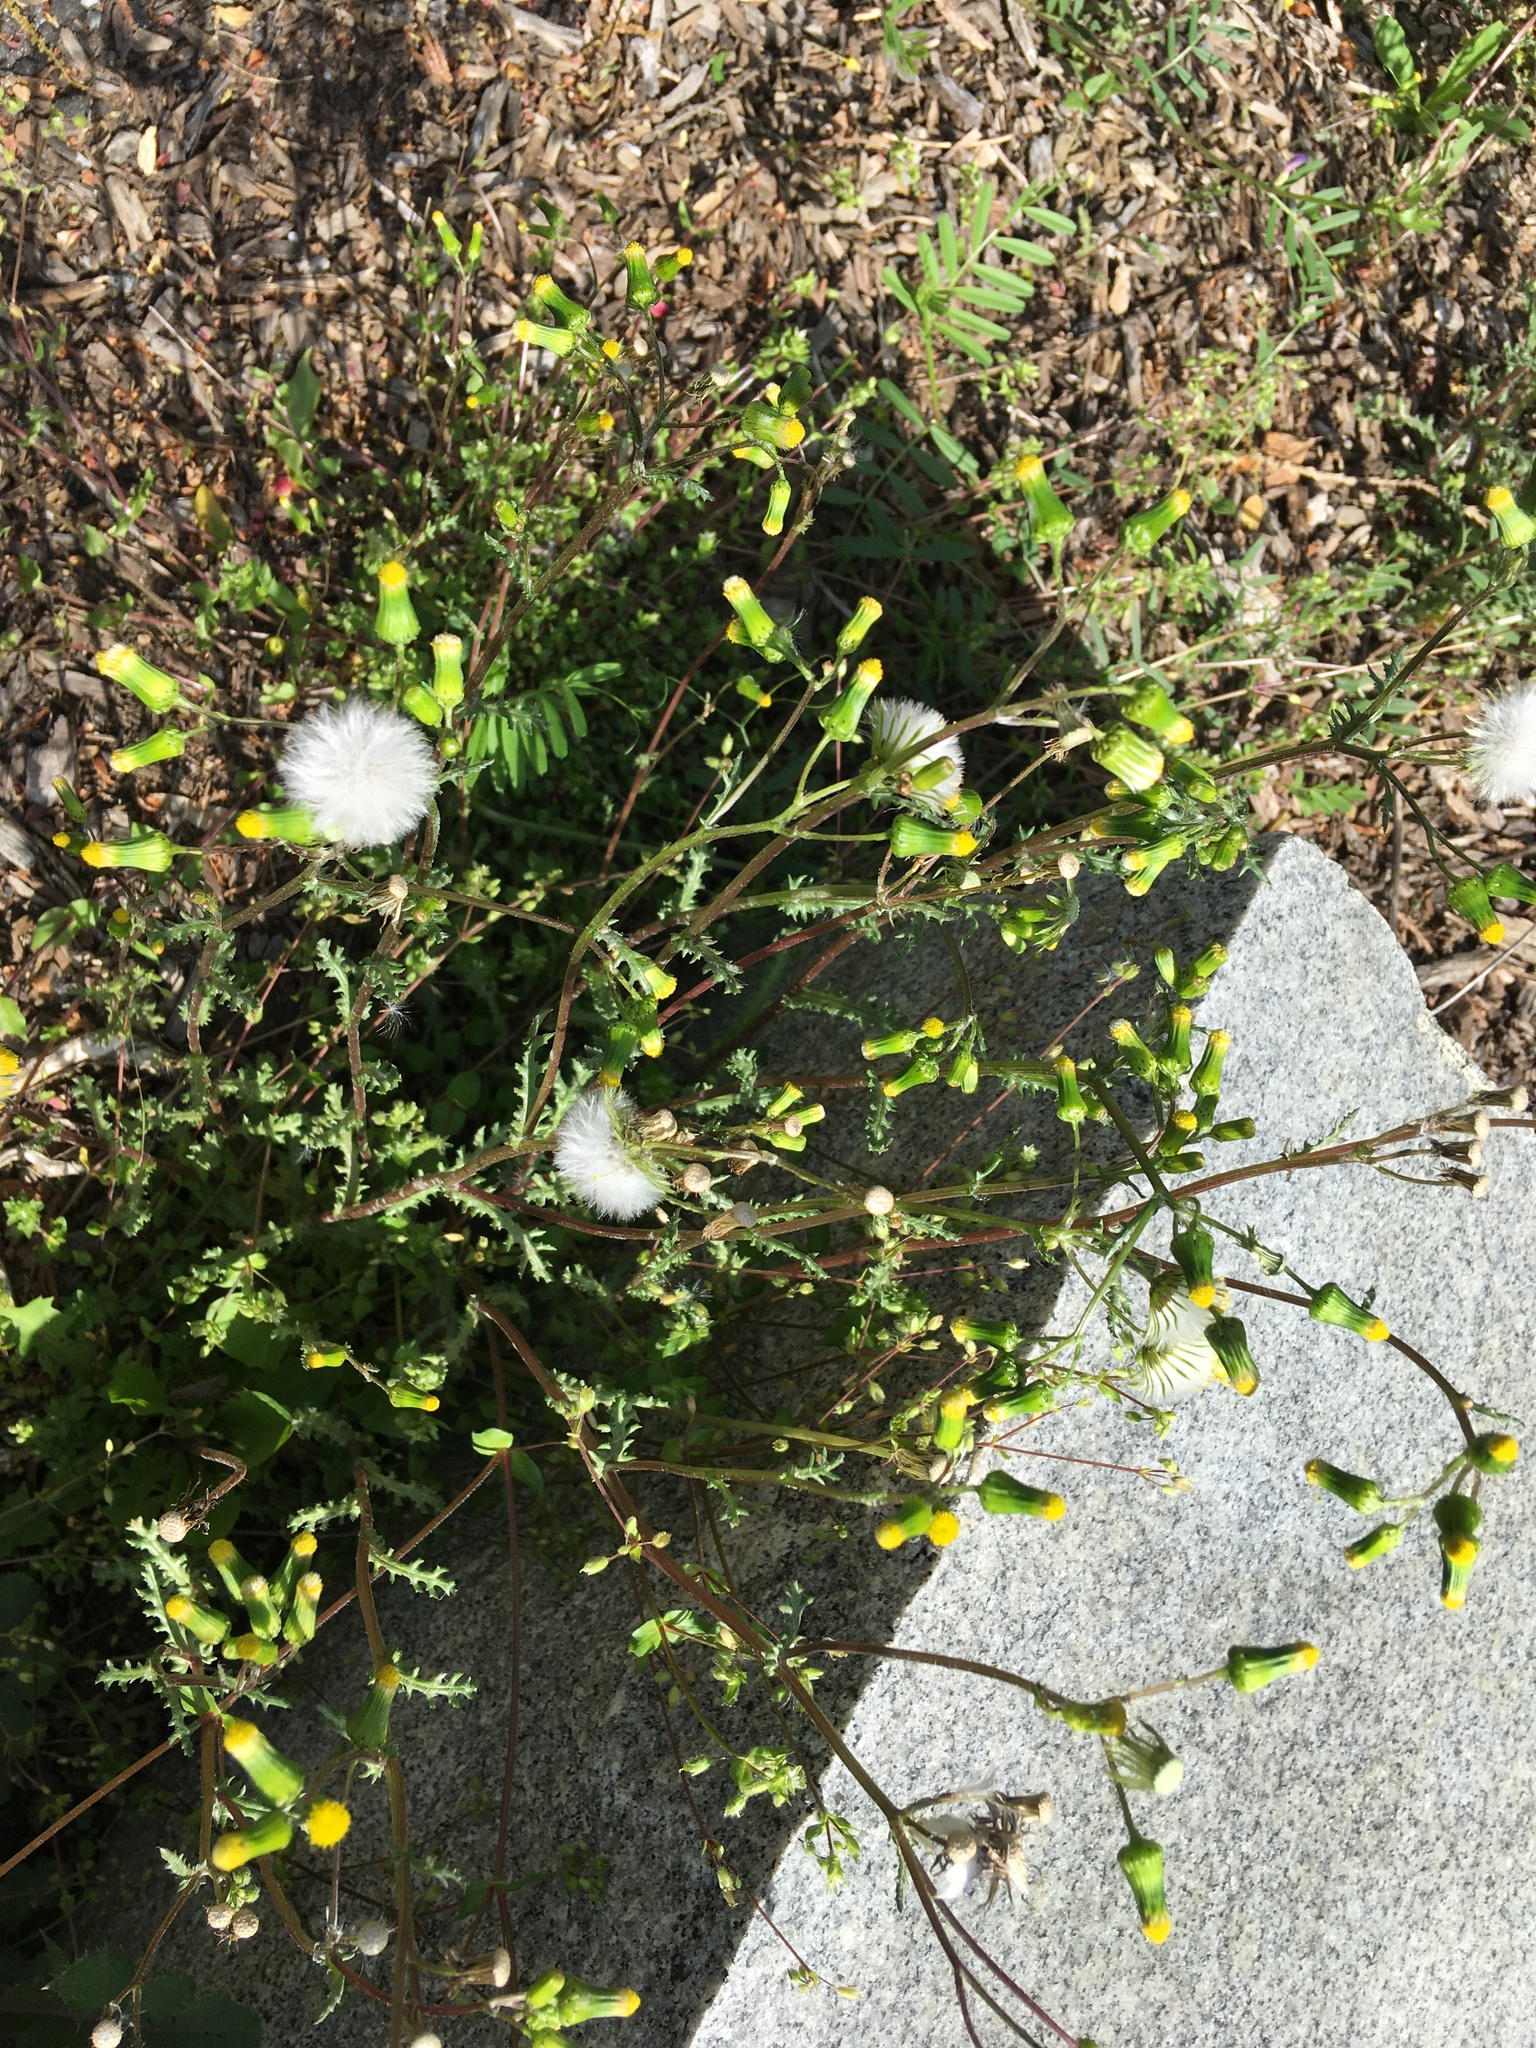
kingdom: Plantae
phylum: Tracheophyta
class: Magnoliopsida
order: Asterales
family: Asteraceae
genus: Senecio
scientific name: Senecio vulgaris
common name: Old-man-in-the-spring
